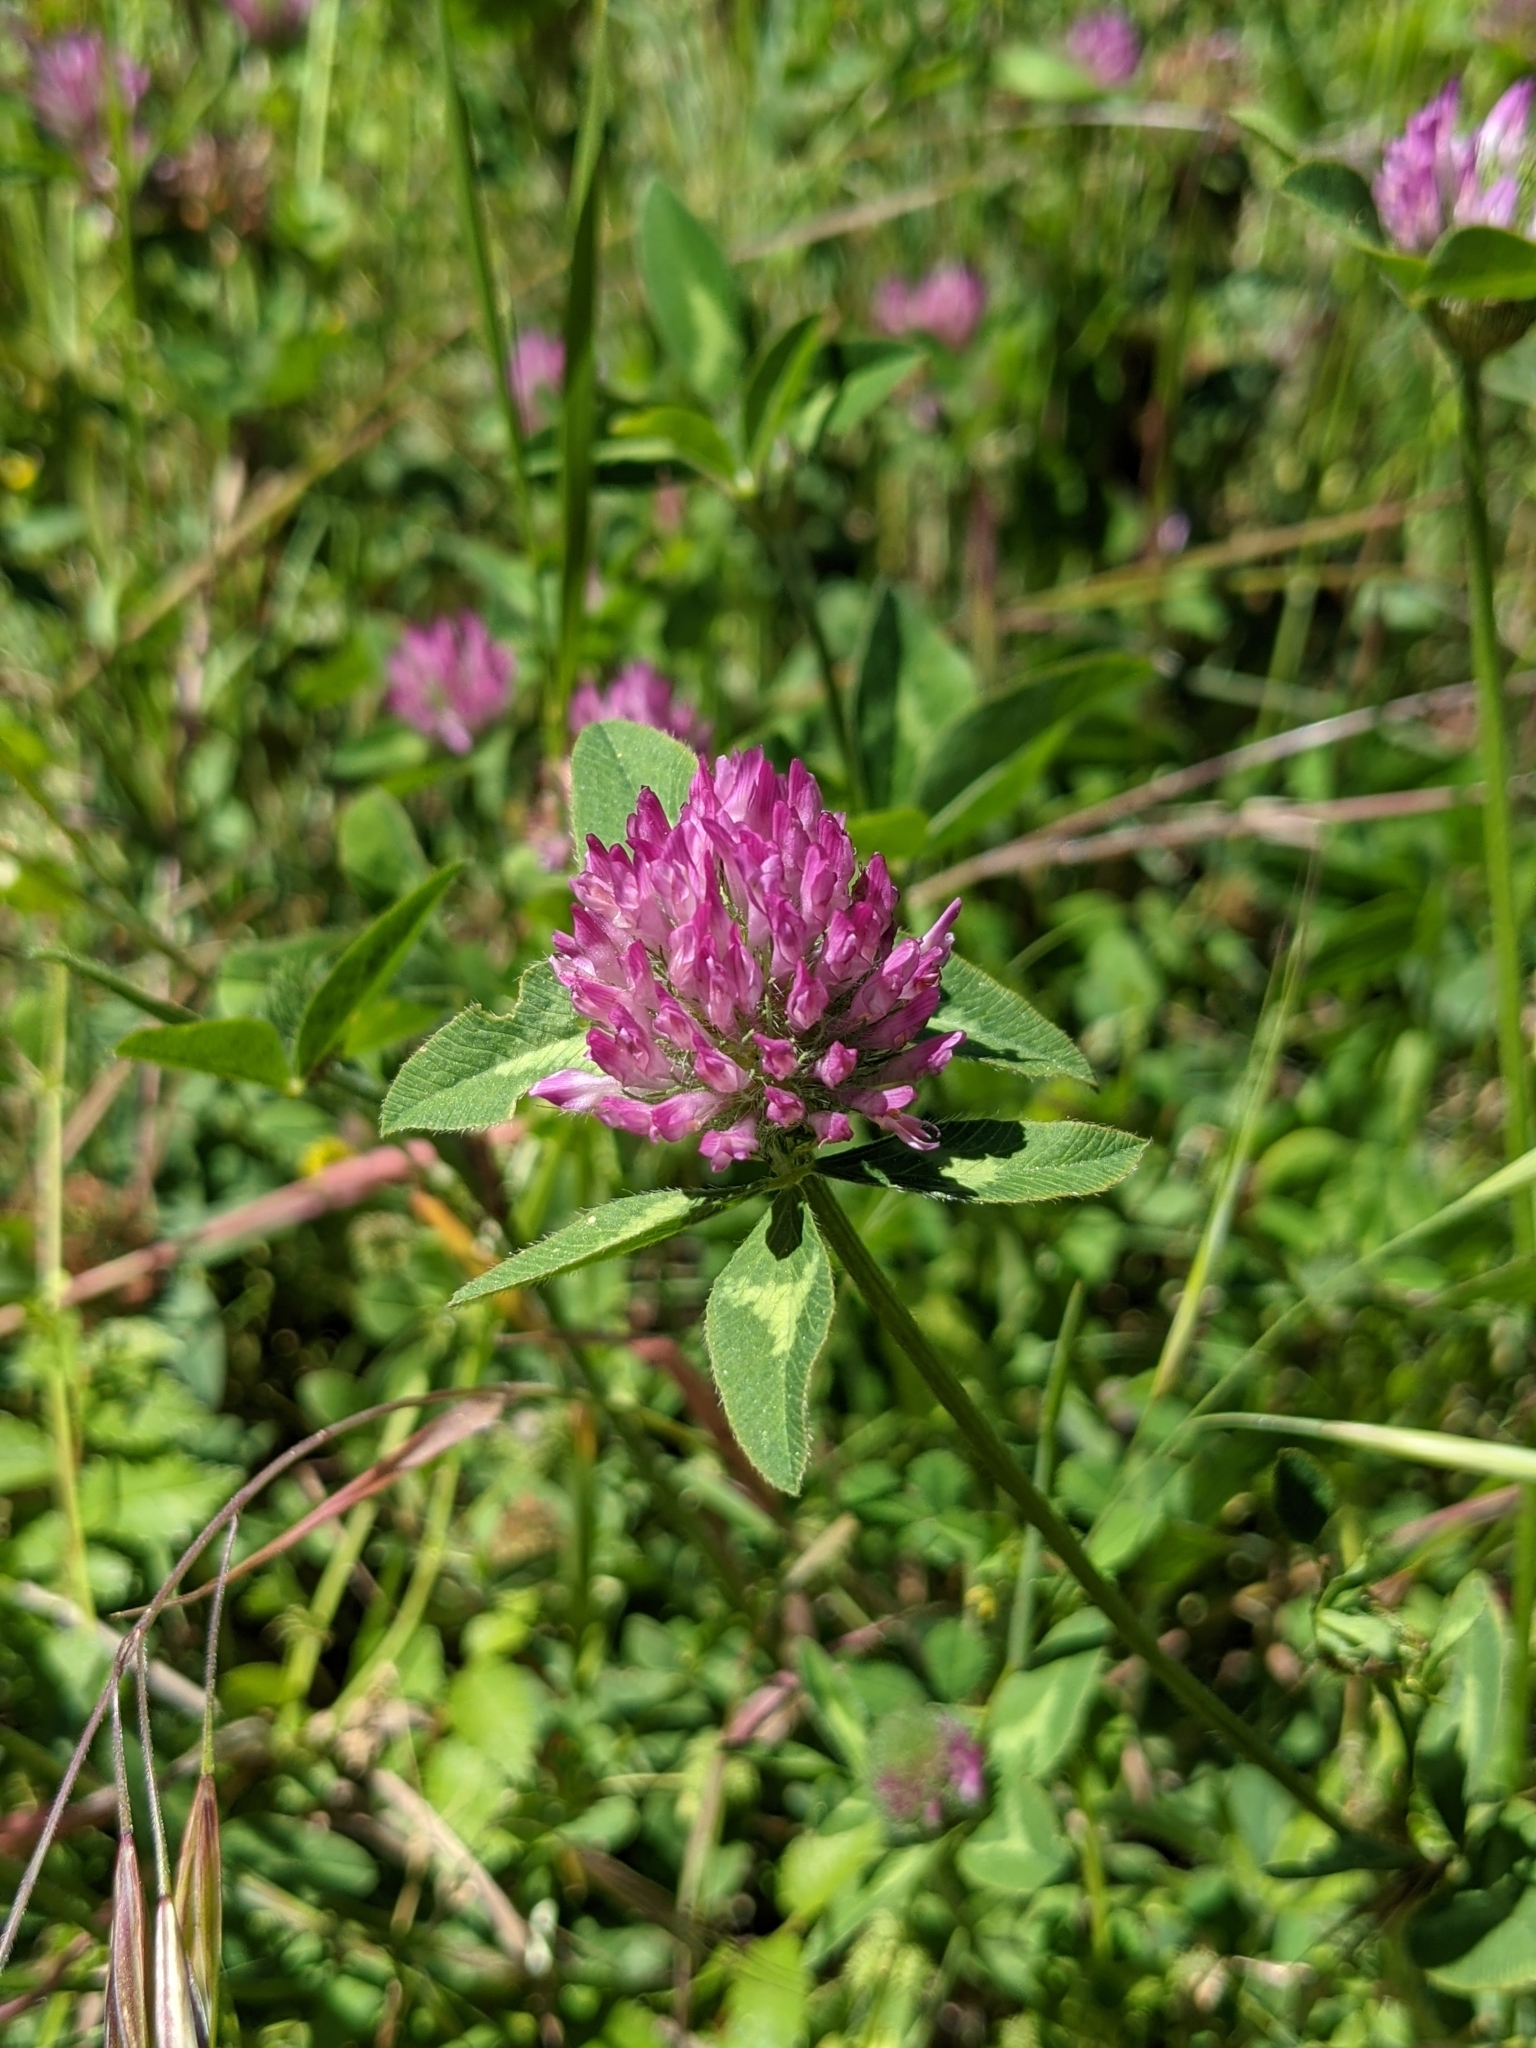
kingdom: Plantae
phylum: Tracheophyta
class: Magnoliopsida
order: Fabales
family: Fabaceae
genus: Trifolium
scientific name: Trifolium pratense
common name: Red clover
